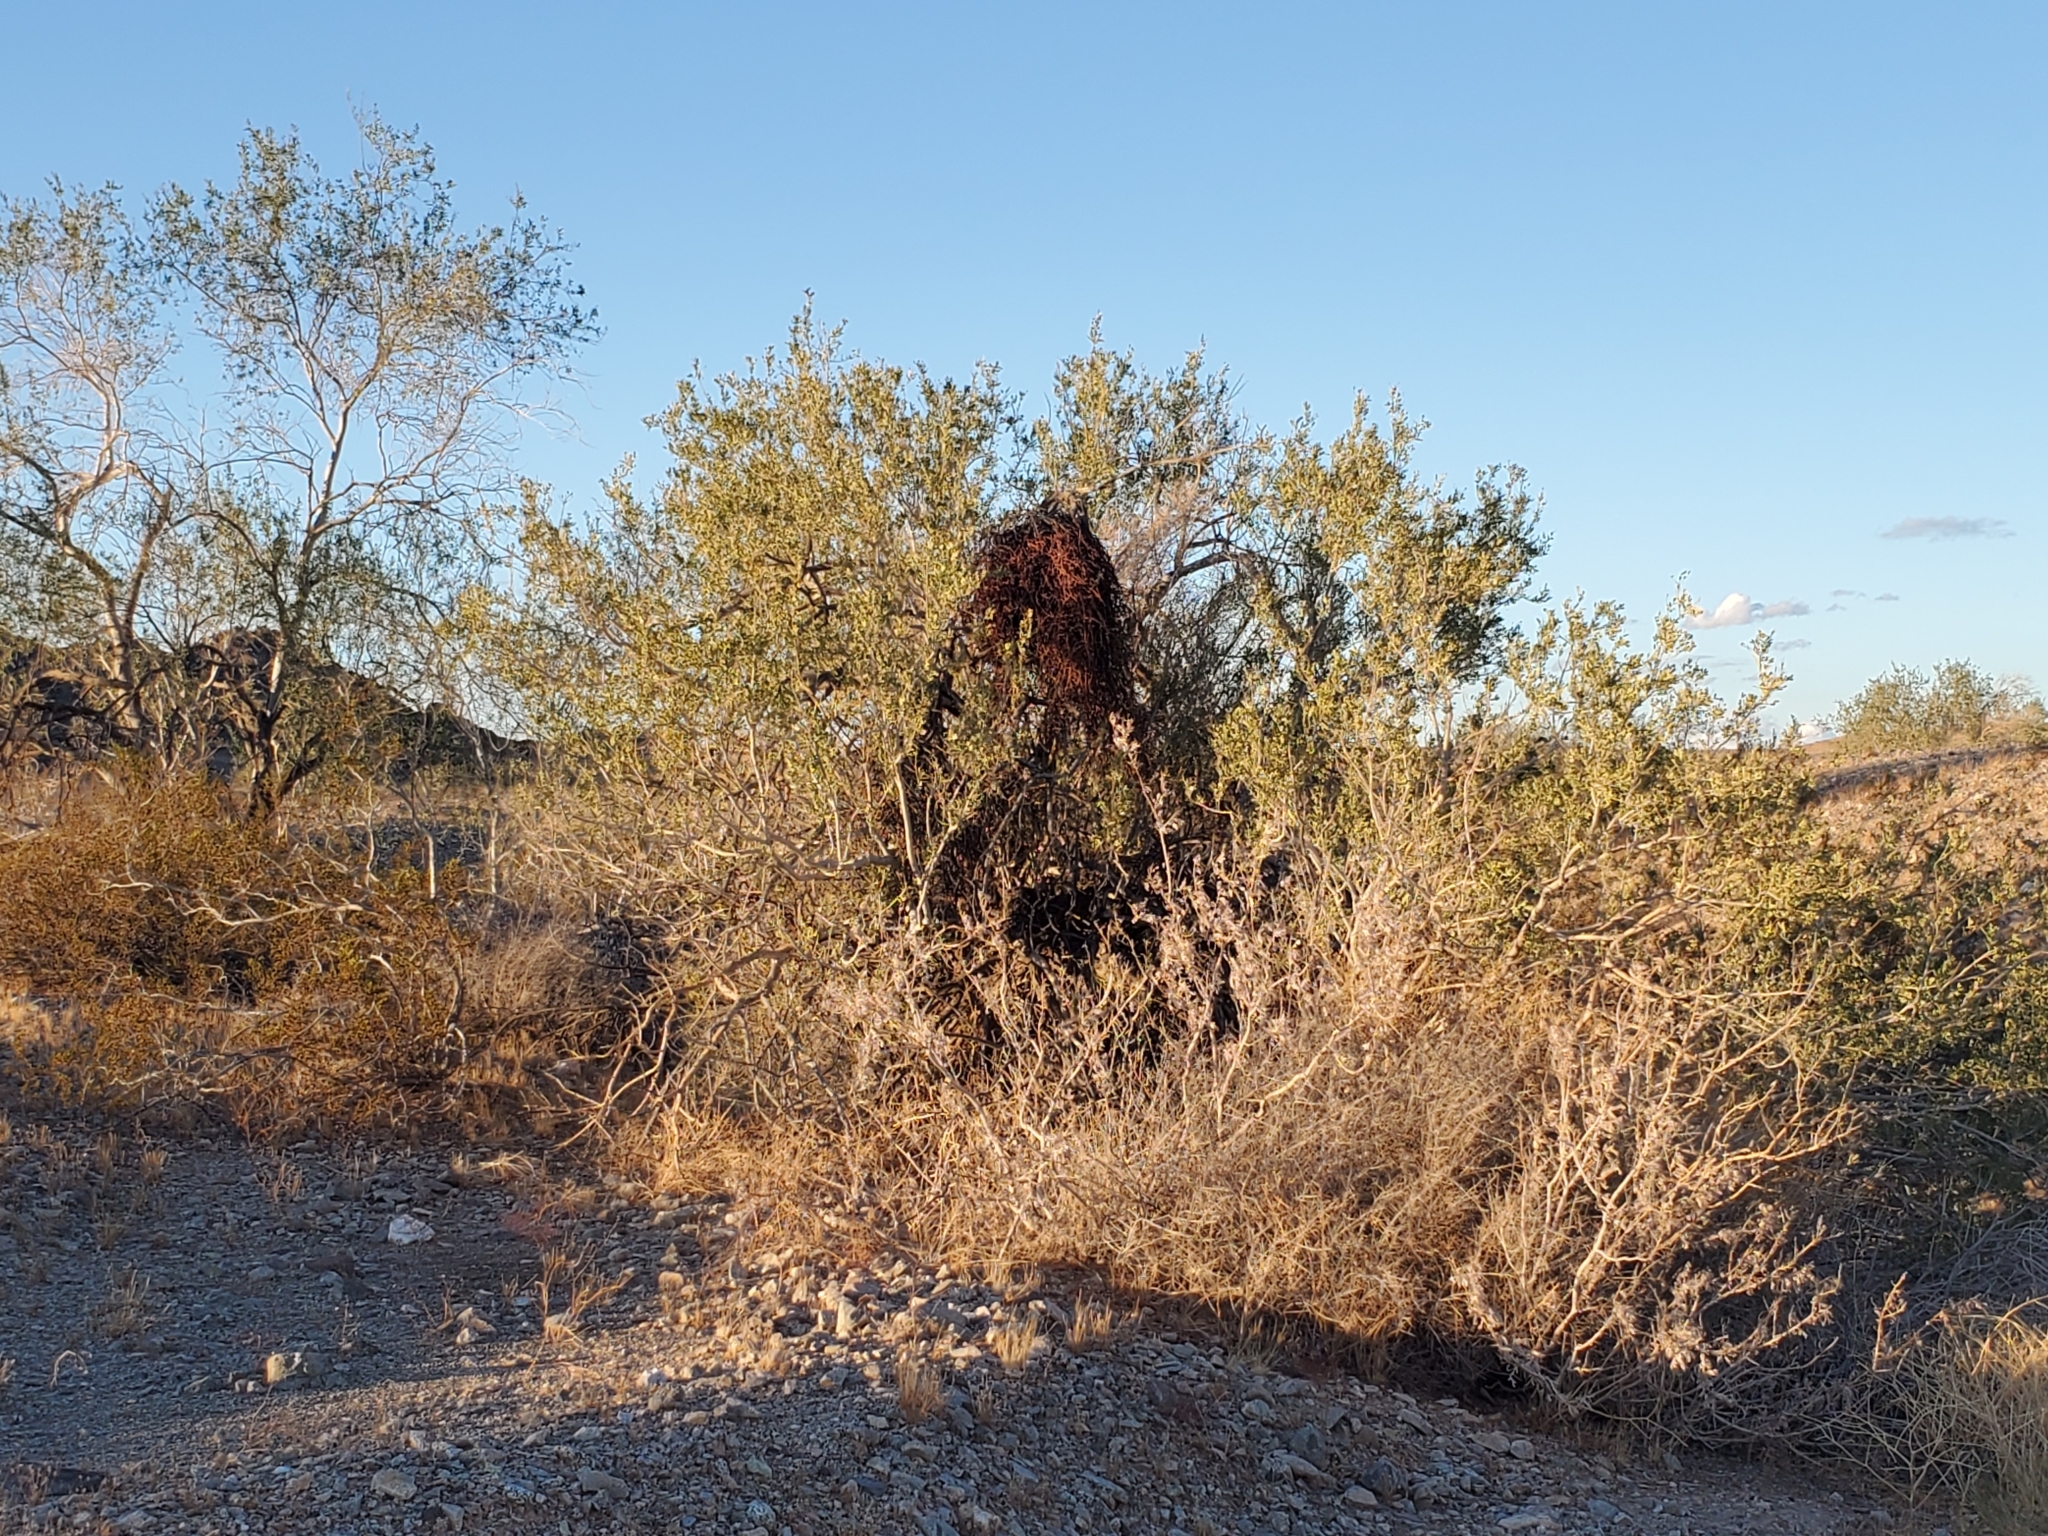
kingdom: Plantae
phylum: Tracheophyta
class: Magnoliopsida
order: Fabales
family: Fabaceae
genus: Olneya
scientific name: Olneya tesota
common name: Desert ironwood
